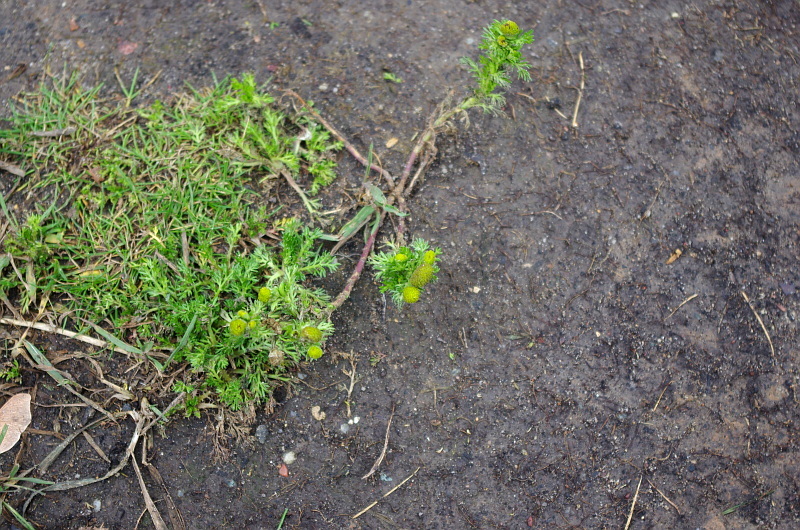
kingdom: Plantae
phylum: Tracheophyta
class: Magnoliopsida
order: Asterales
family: Asteraceae
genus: Matricaria
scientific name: Matricaria discoidea
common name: Disc mayweed
